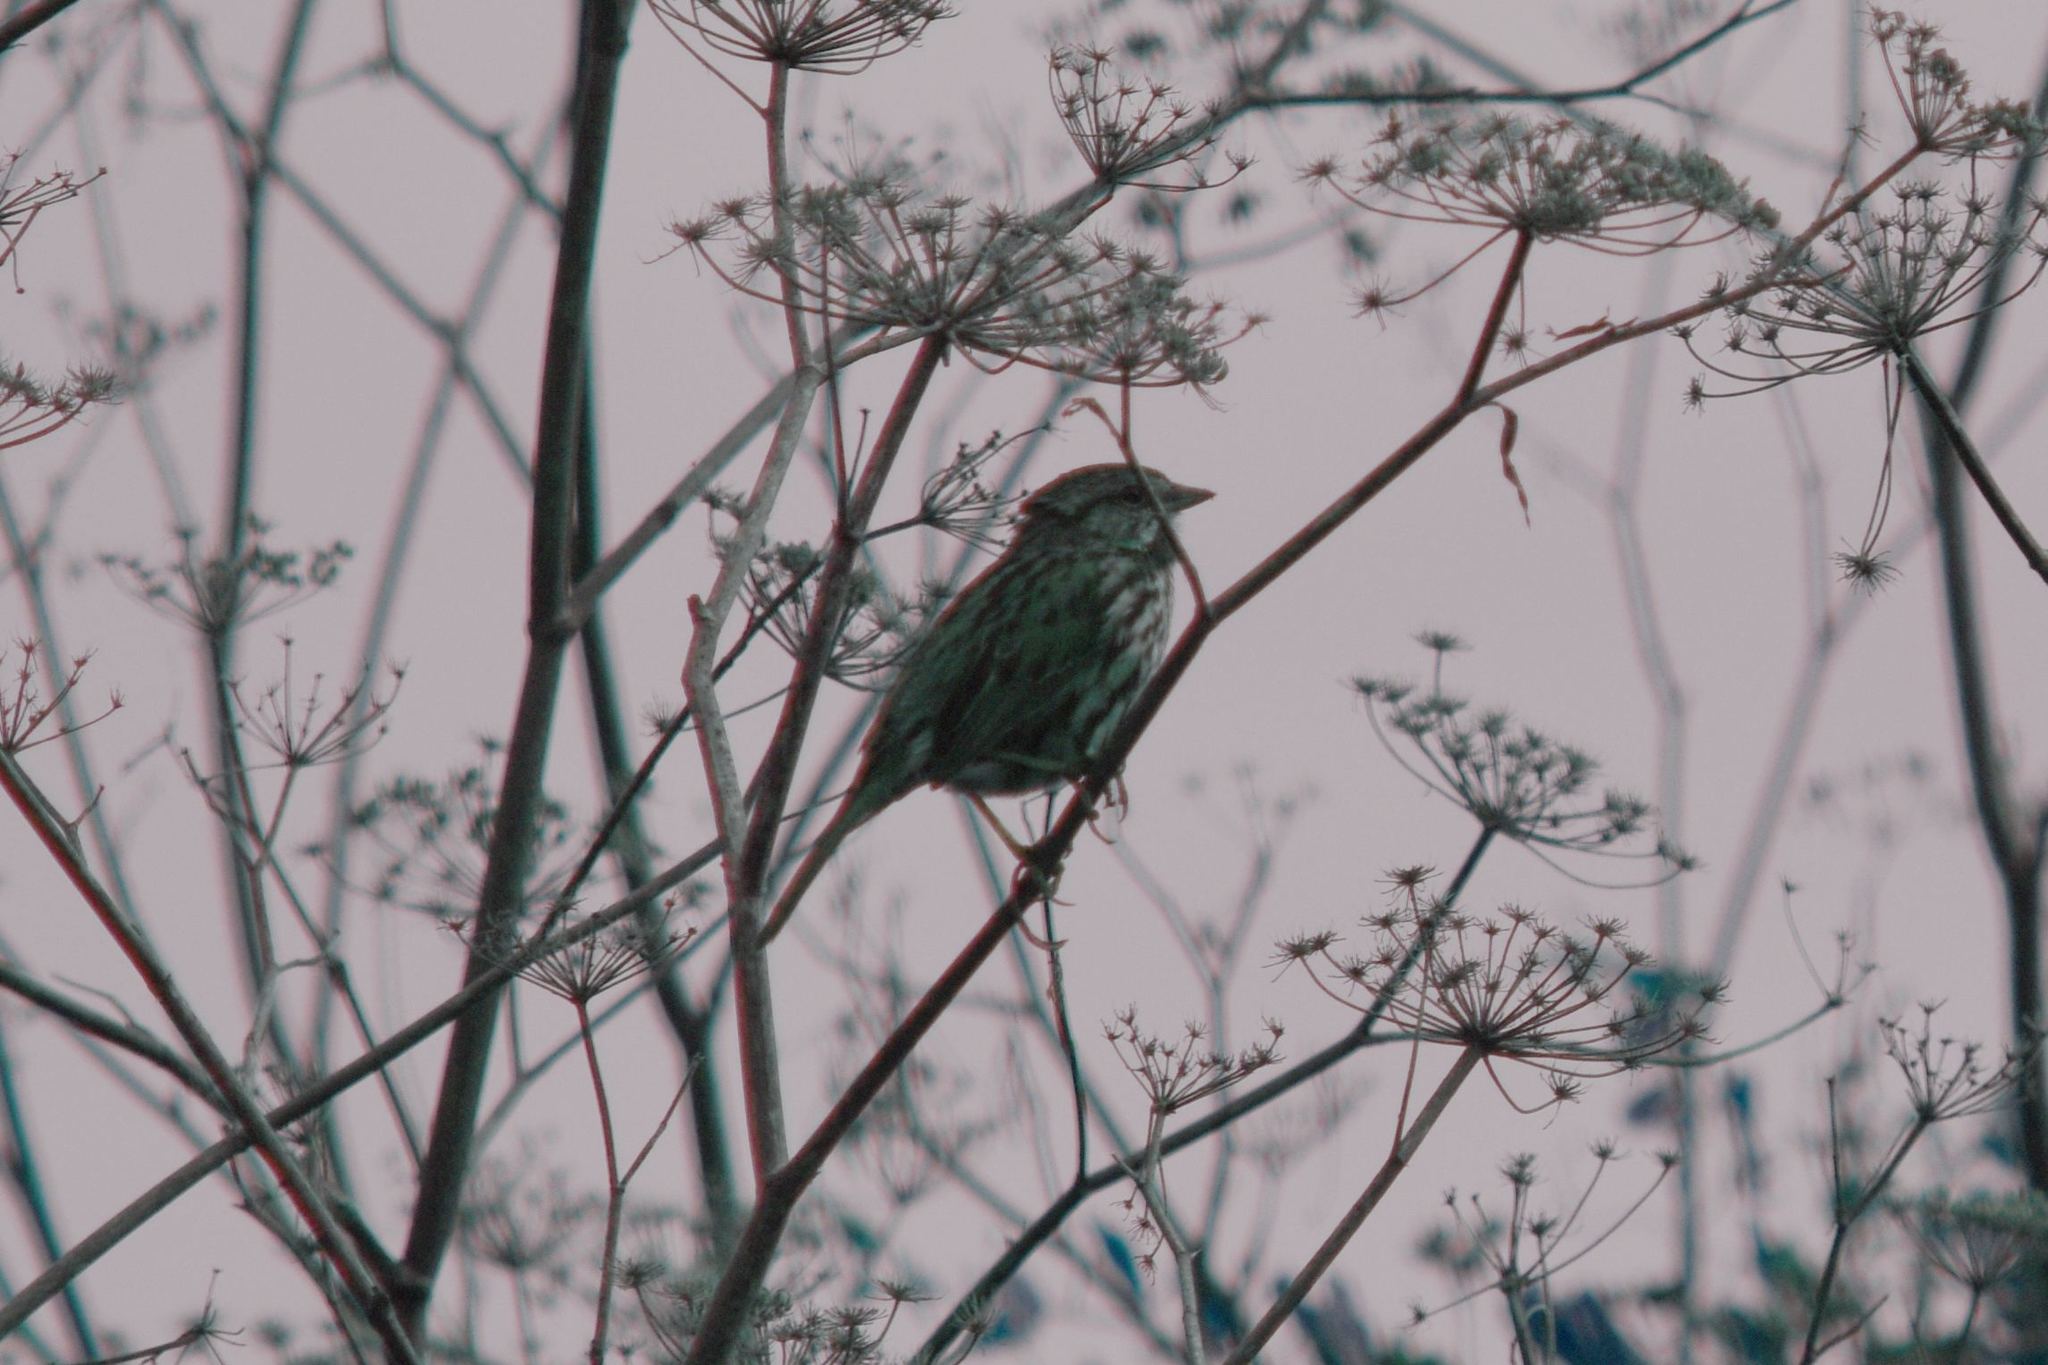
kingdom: Animalia
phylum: Chordata
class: Aves
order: Passeriformes
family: Passerellidae
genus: Melospiza
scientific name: Melospiza melodia
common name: Song sparrow
